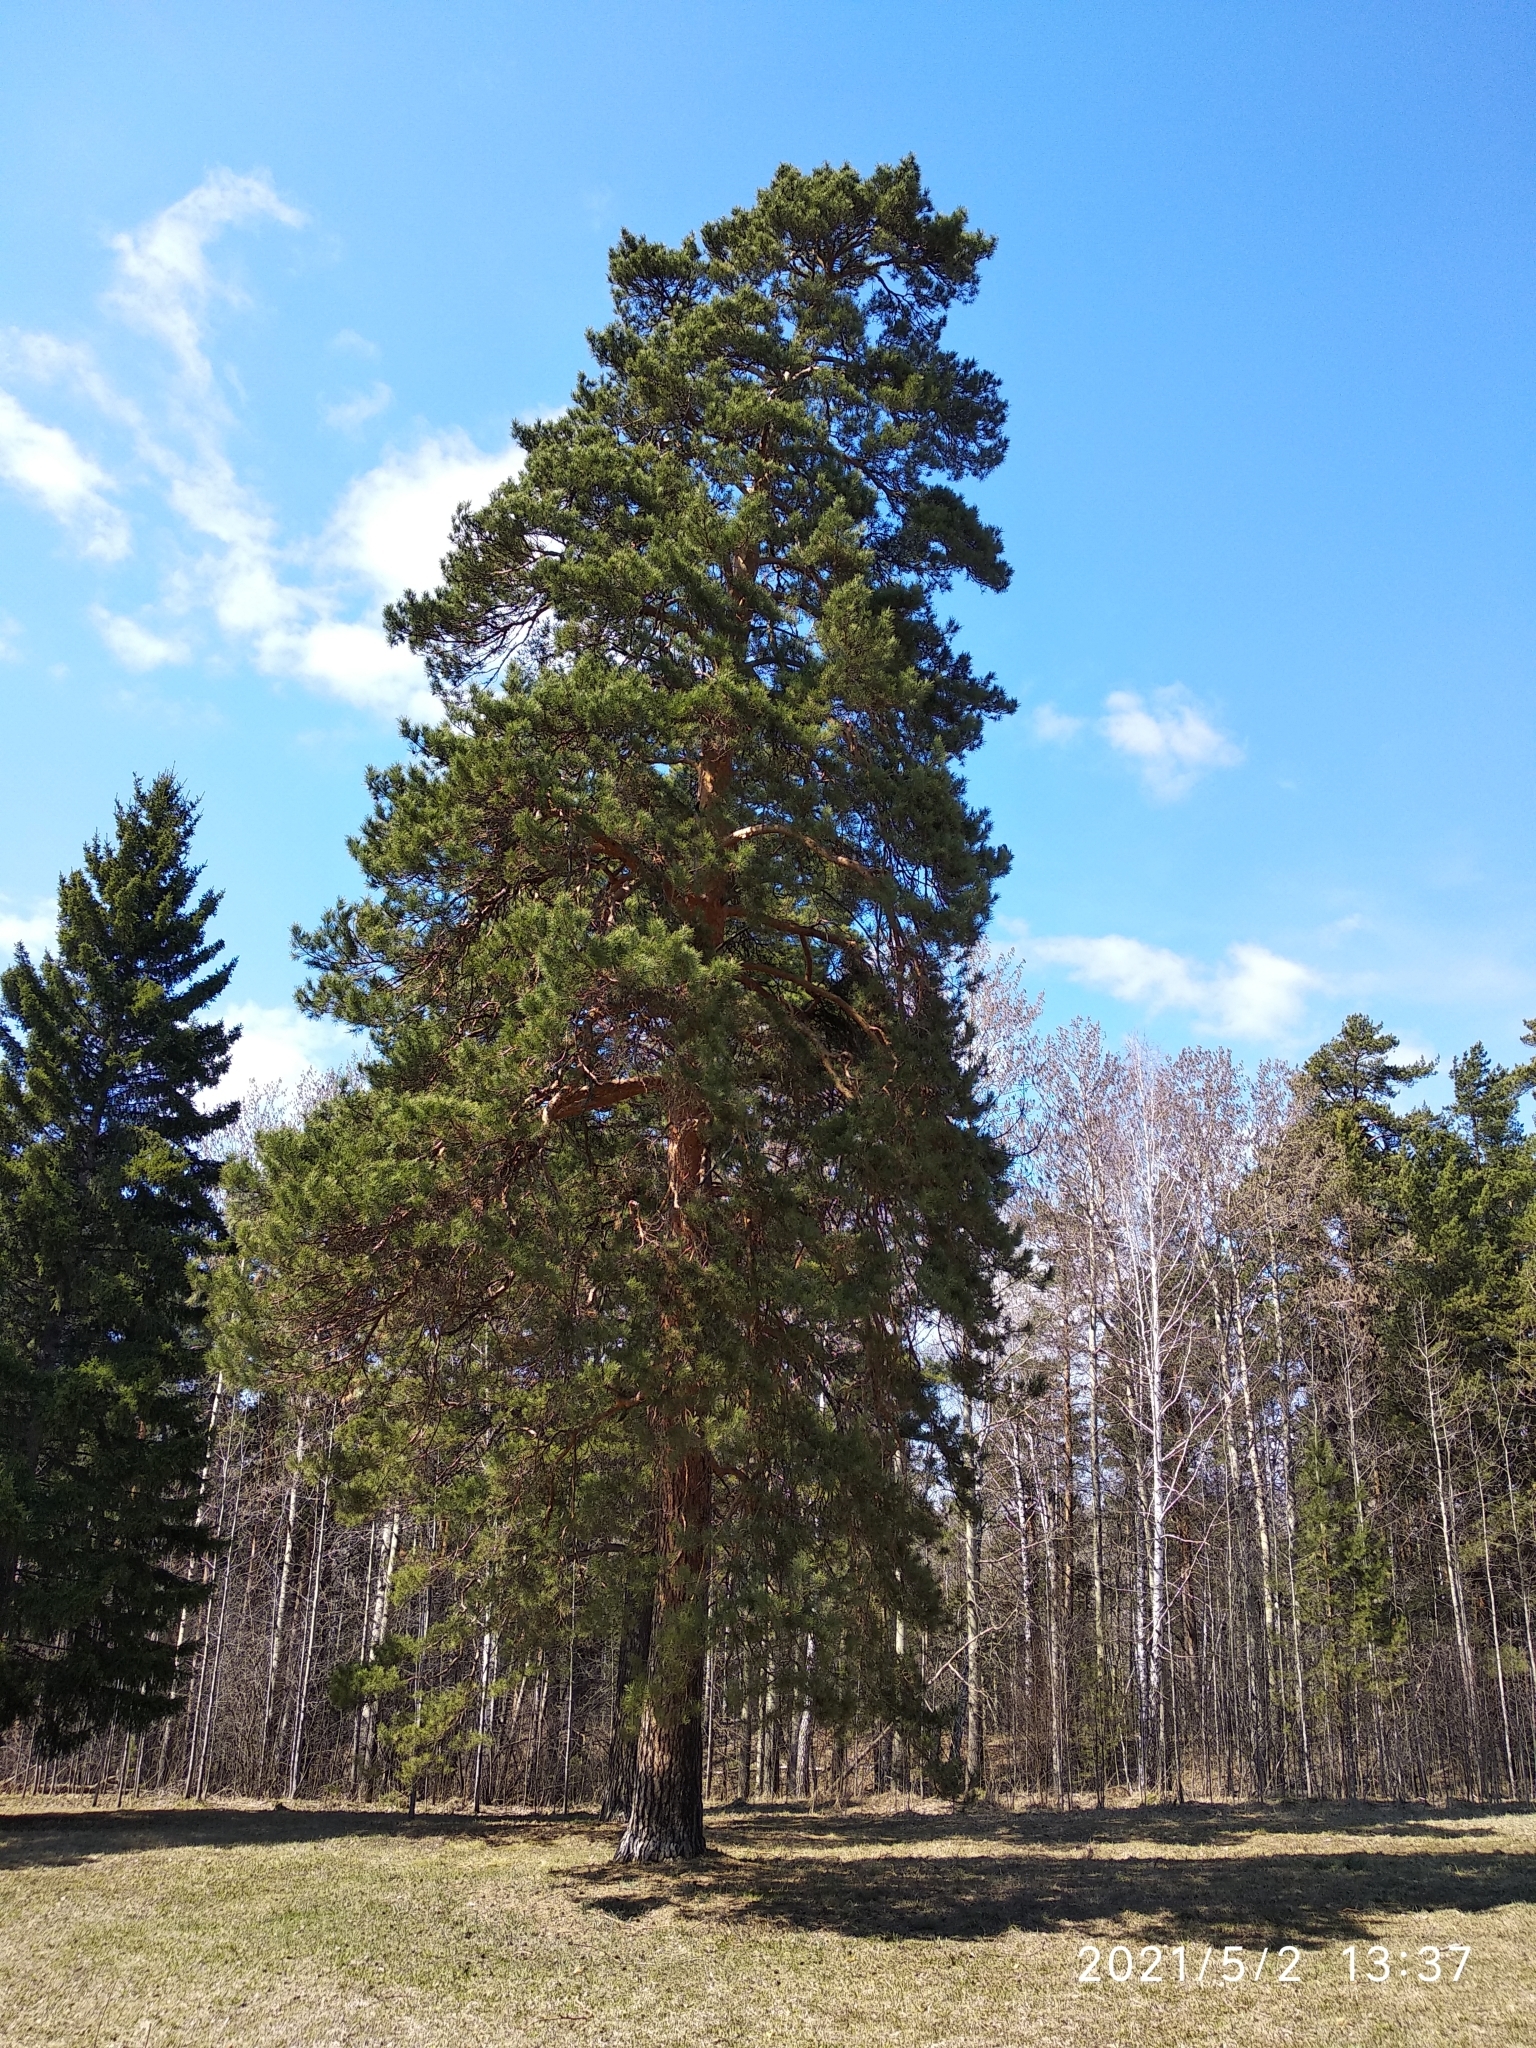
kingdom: Plantae
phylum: Tracheophyta
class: Pinopsida
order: Pinales
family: Pinaceae
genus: Pinus
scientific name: Pinus sylvestris
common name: Scots pine
